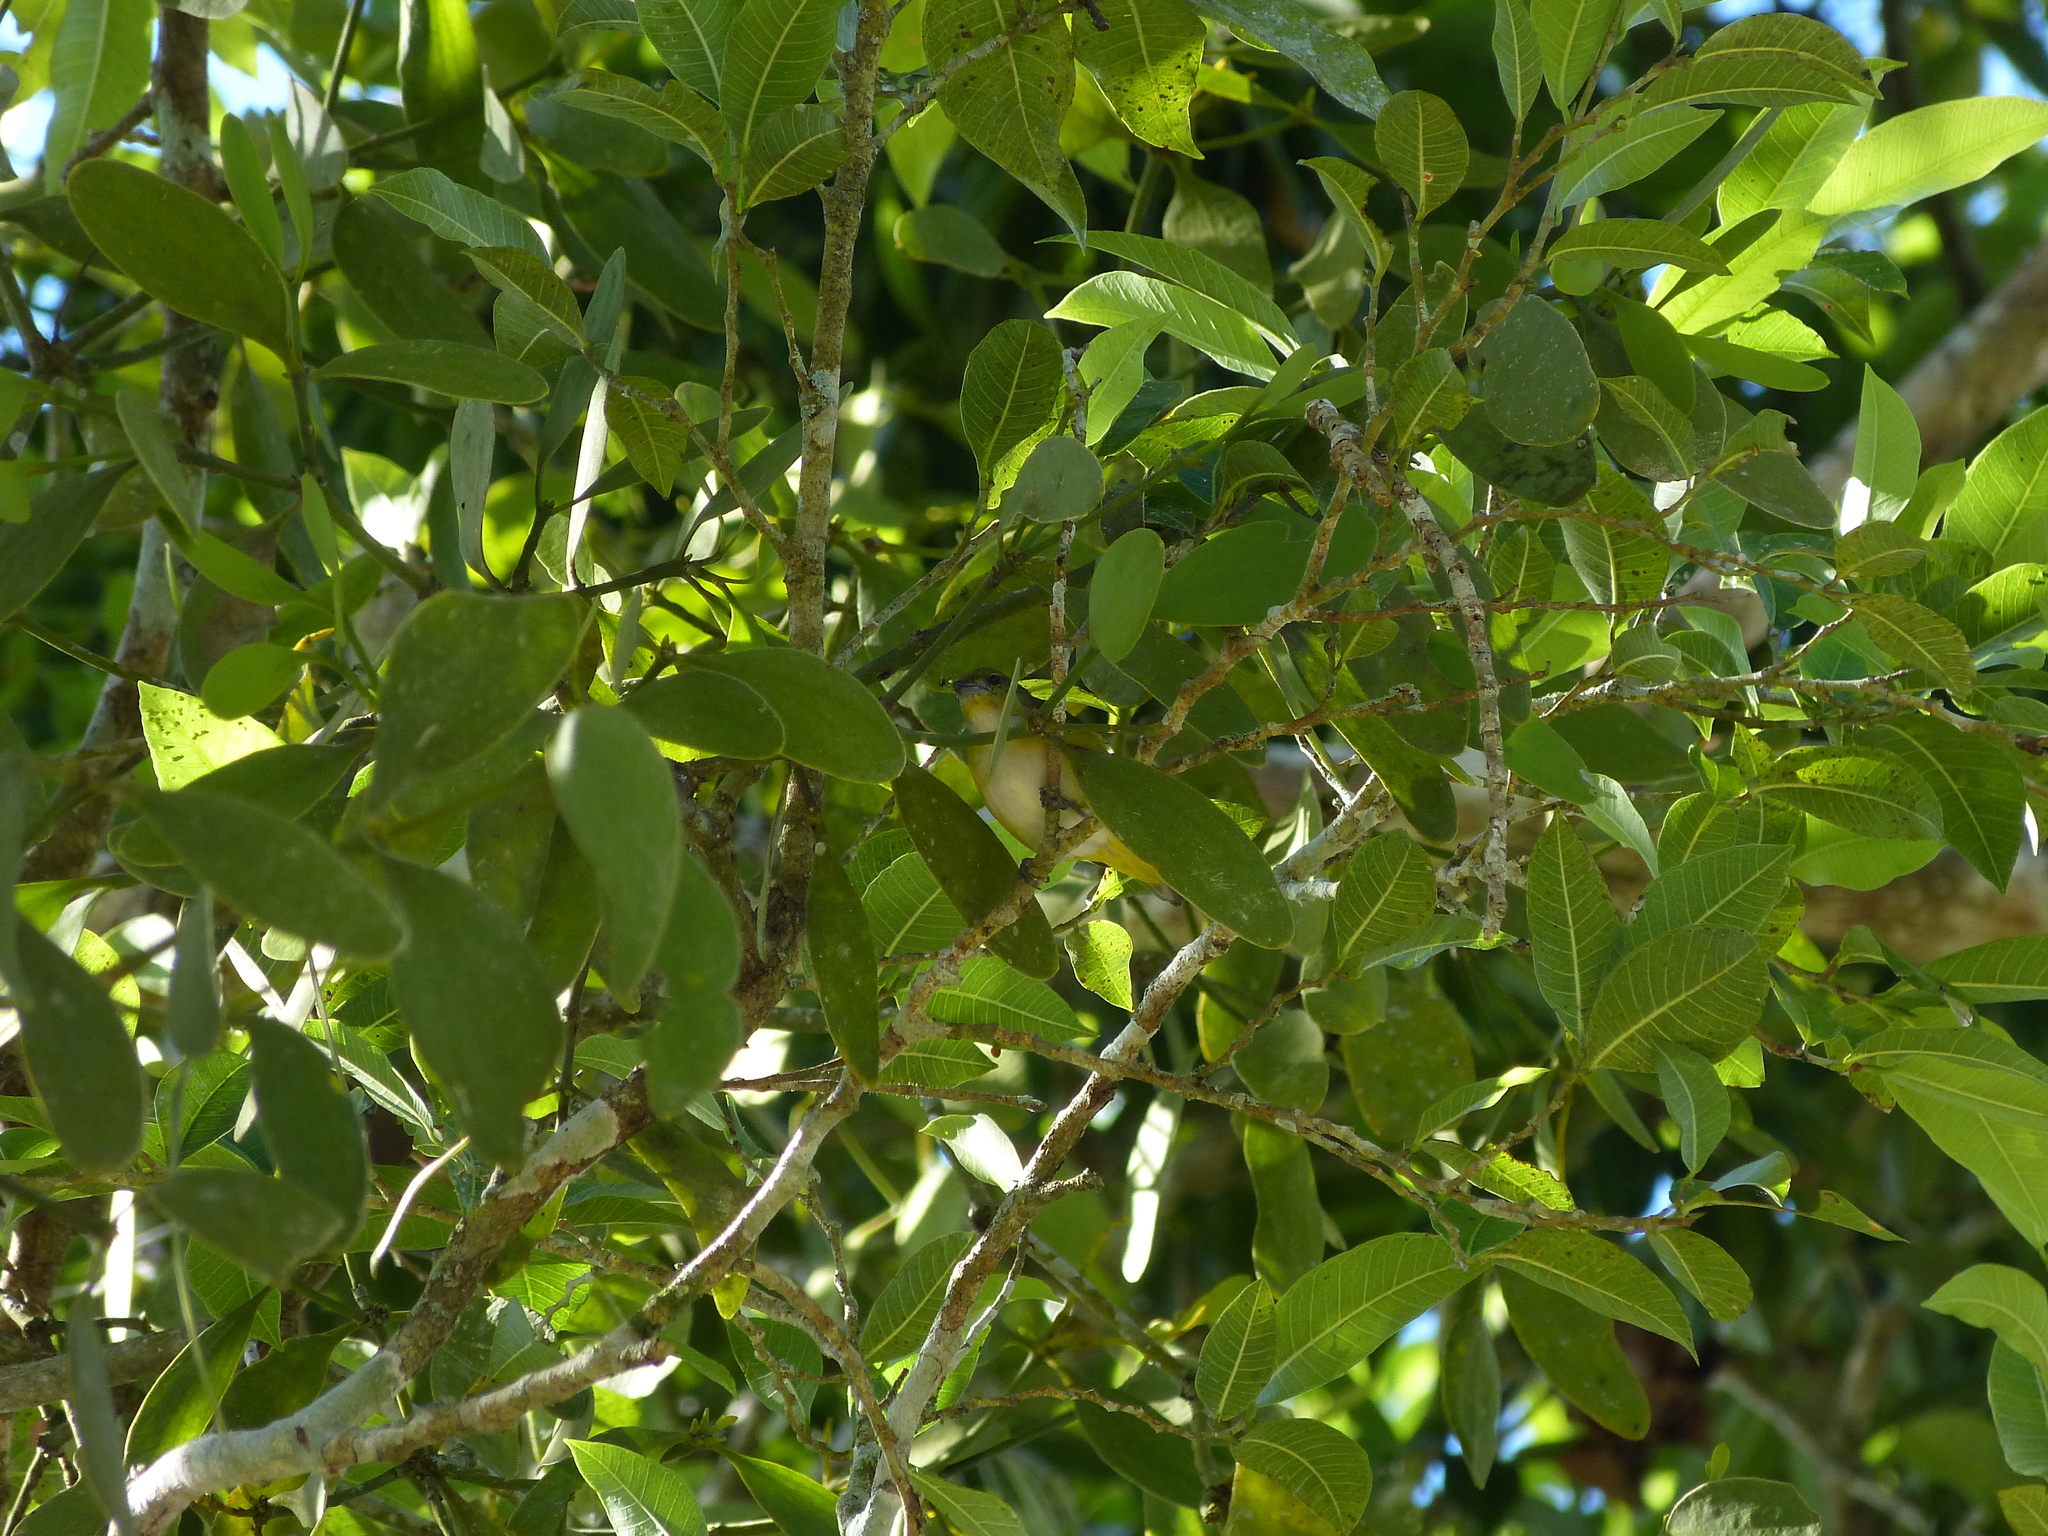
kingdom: Animalia
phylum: Chordata
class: Aves
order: Passeriformes
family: Fringillidae
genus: Euphonia
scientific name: Euphonia hirundinacea
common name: Yellow-throated euphonia
